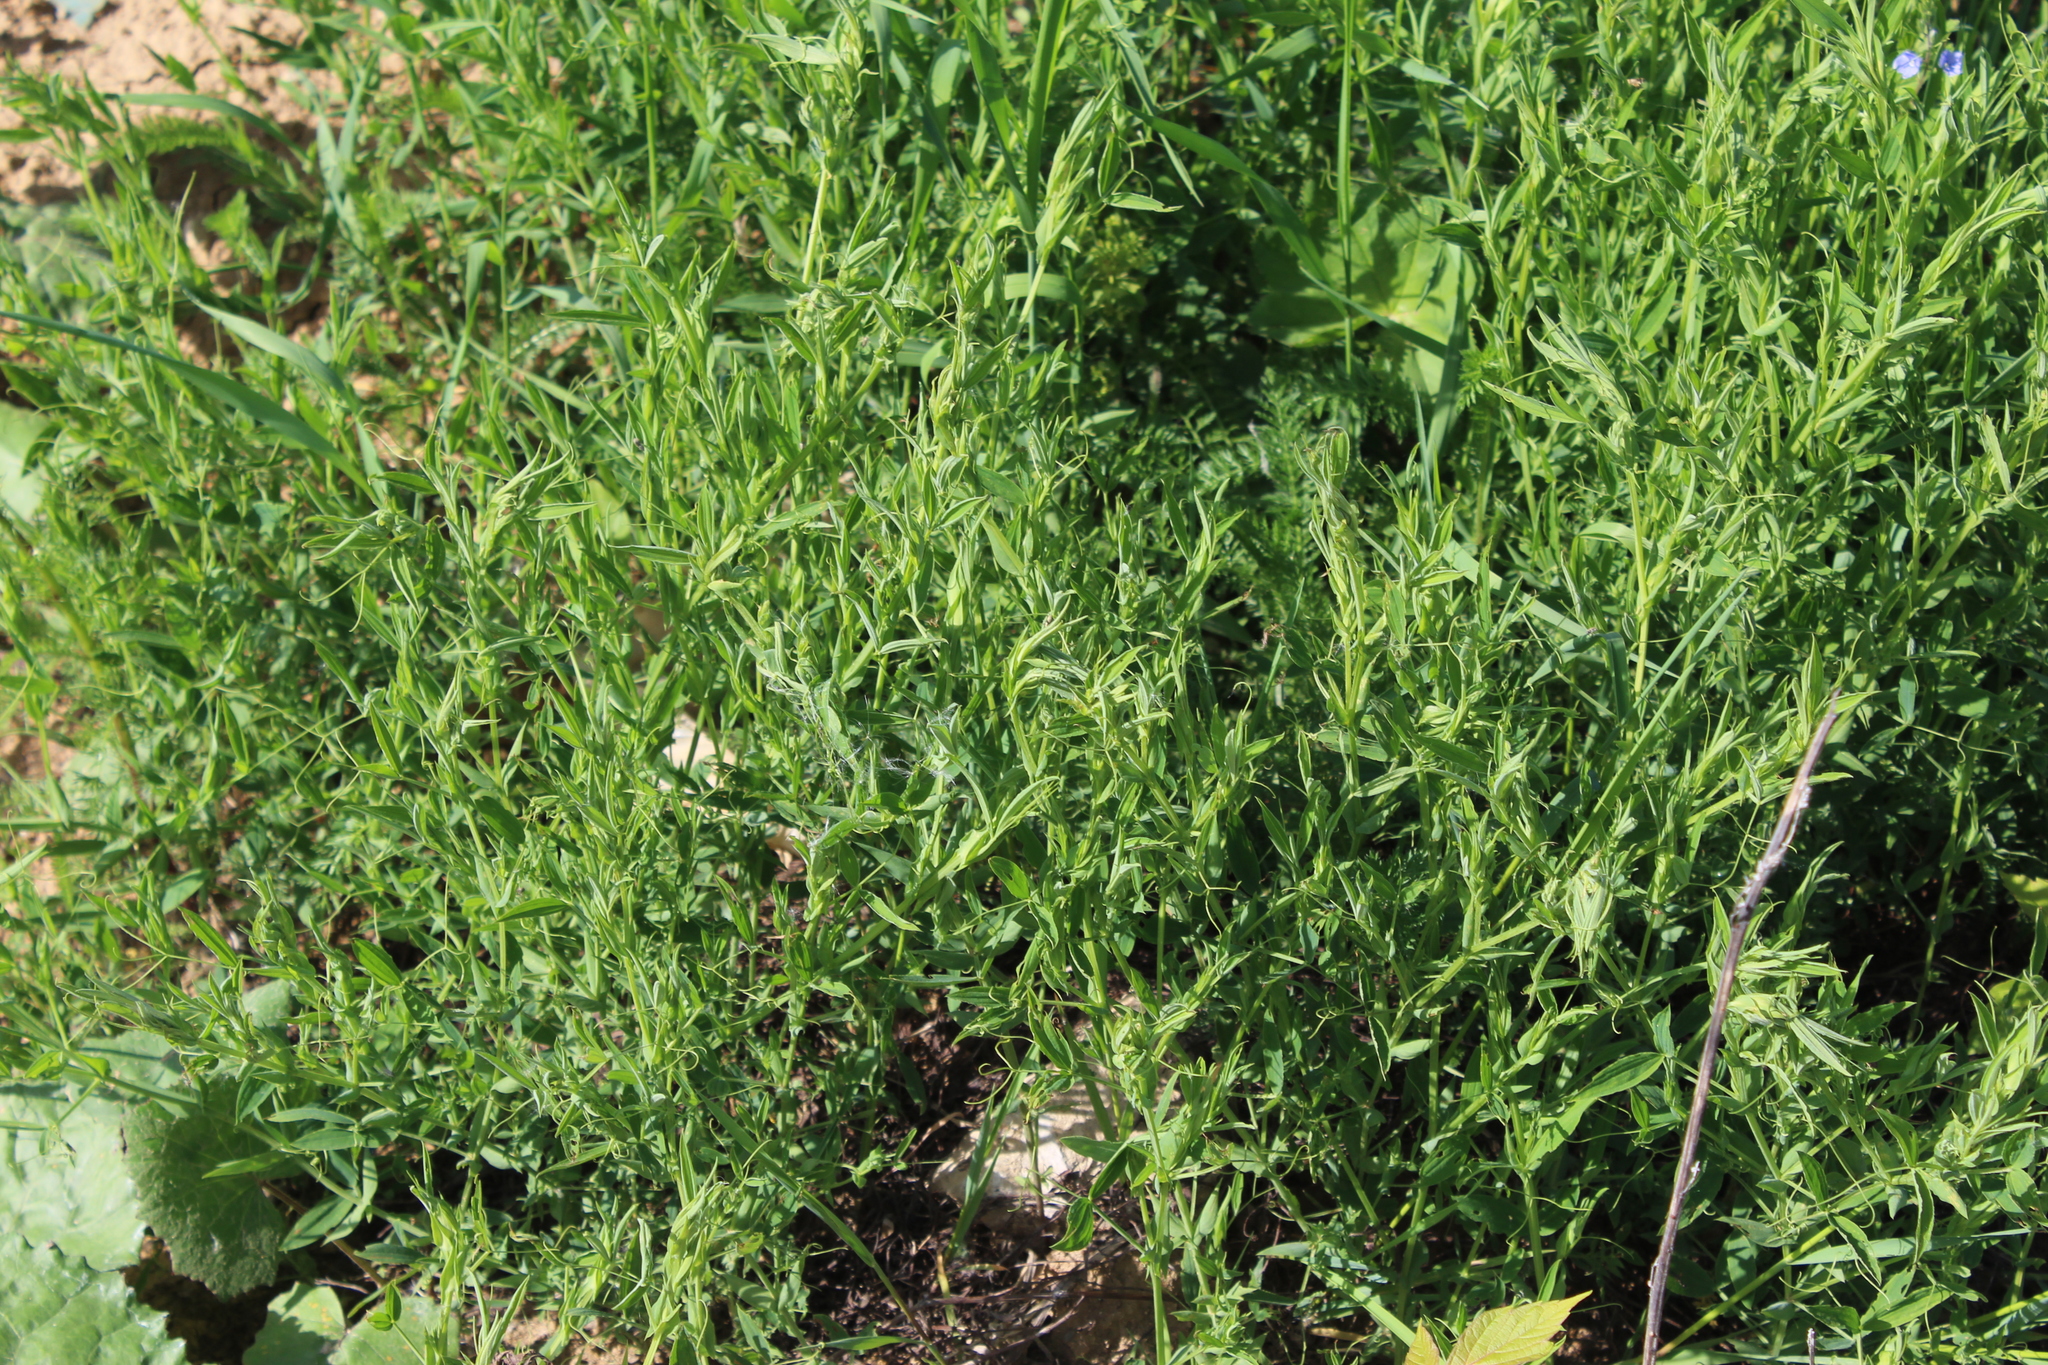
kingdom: Plantae
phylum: Tracheophyta
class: Magnoliopsida
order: Fabales
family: Fabaceae
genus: Lathyrus
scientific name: Lathyrus pratensis
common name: Meadow vetchling
